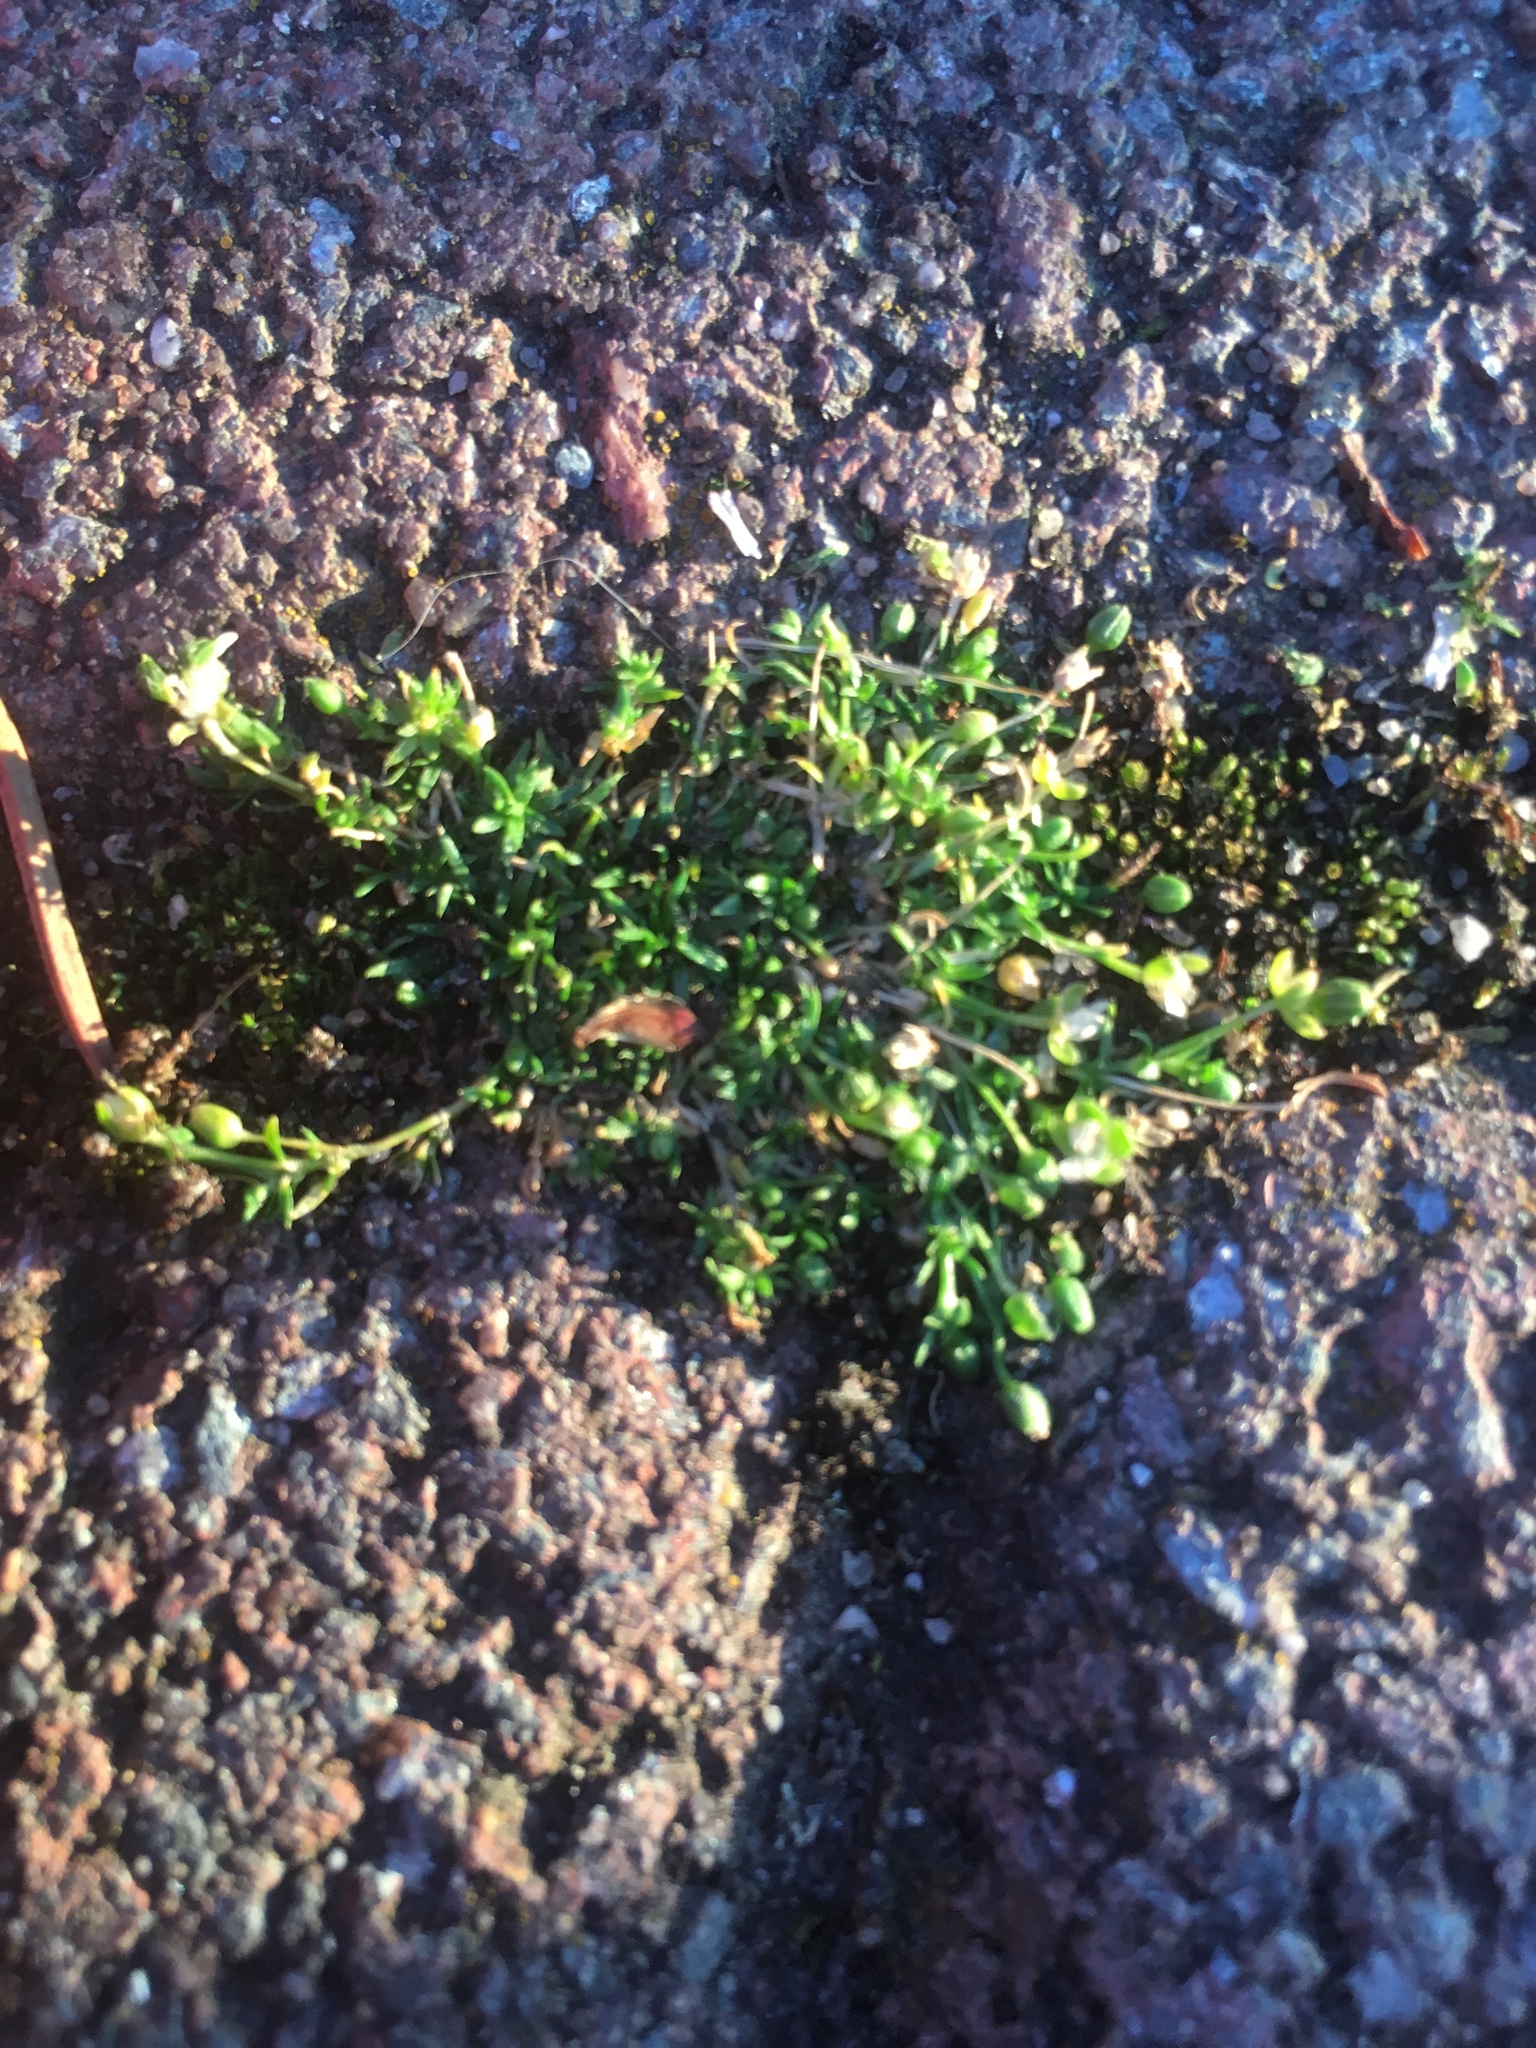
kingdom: Plantae
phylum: Tracheophyta
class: Magnoliopsida
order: Caryophyllales
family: Caryophyllaceae
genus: Sagina
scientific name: Sagina procumbens
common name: Procumbent pearlwort
